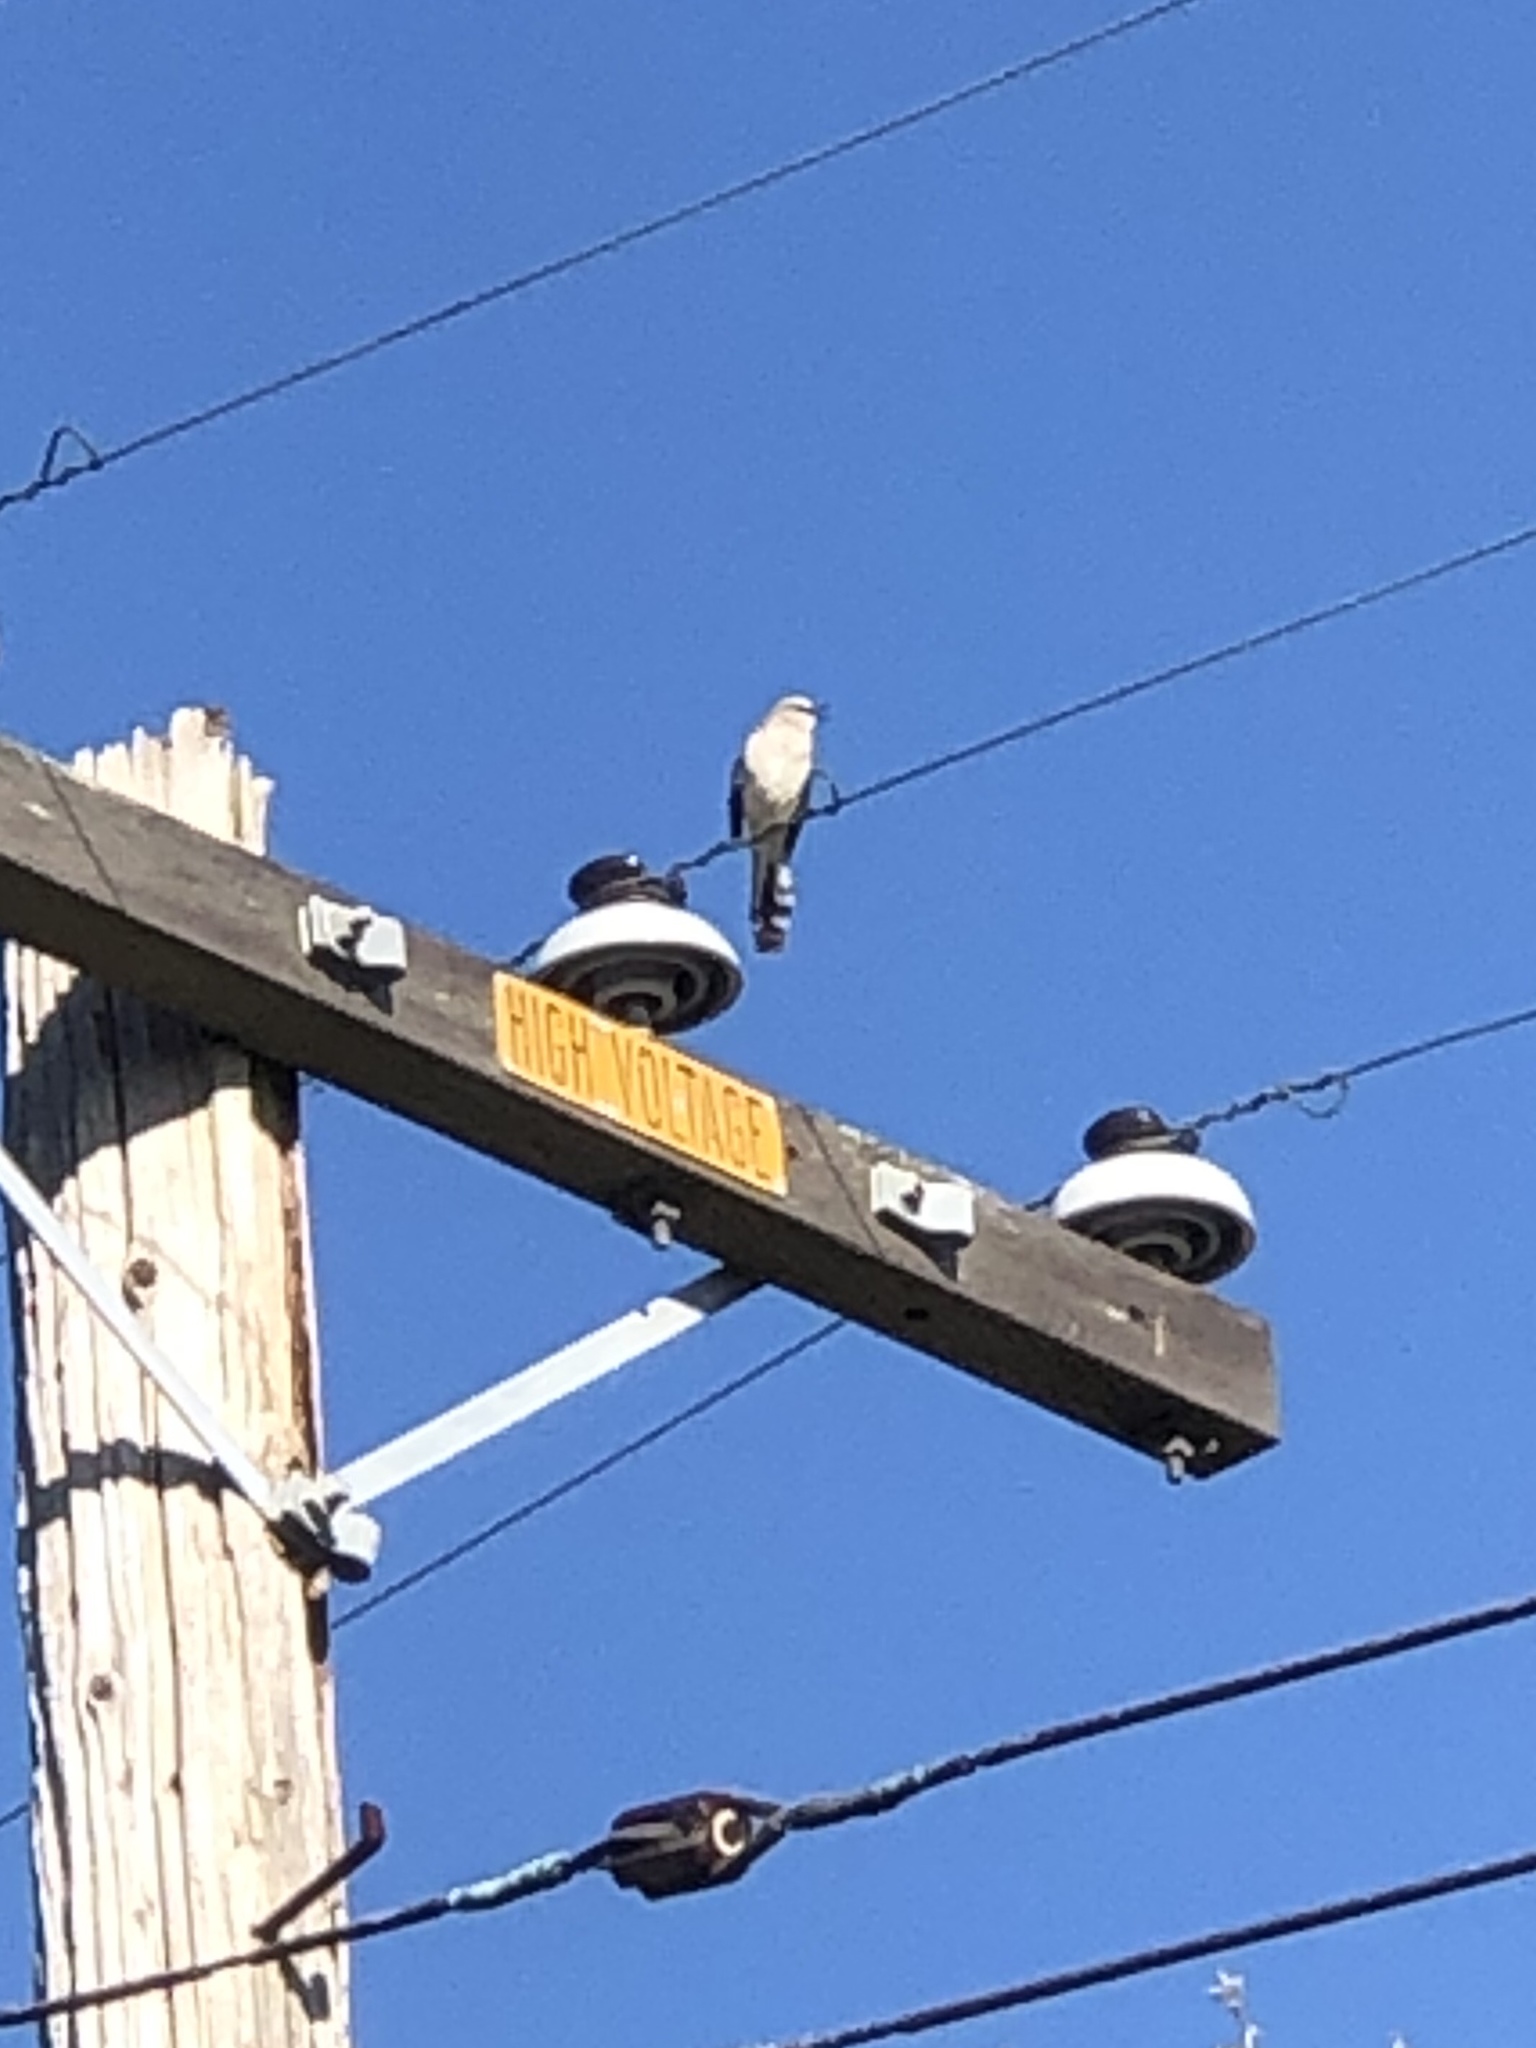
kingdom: Animalia
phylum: Chordata
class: Aves
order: Passeriformes
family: Mimidae
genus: Mimus
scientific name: Mimus polyglottos
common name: Northern mockingbird
